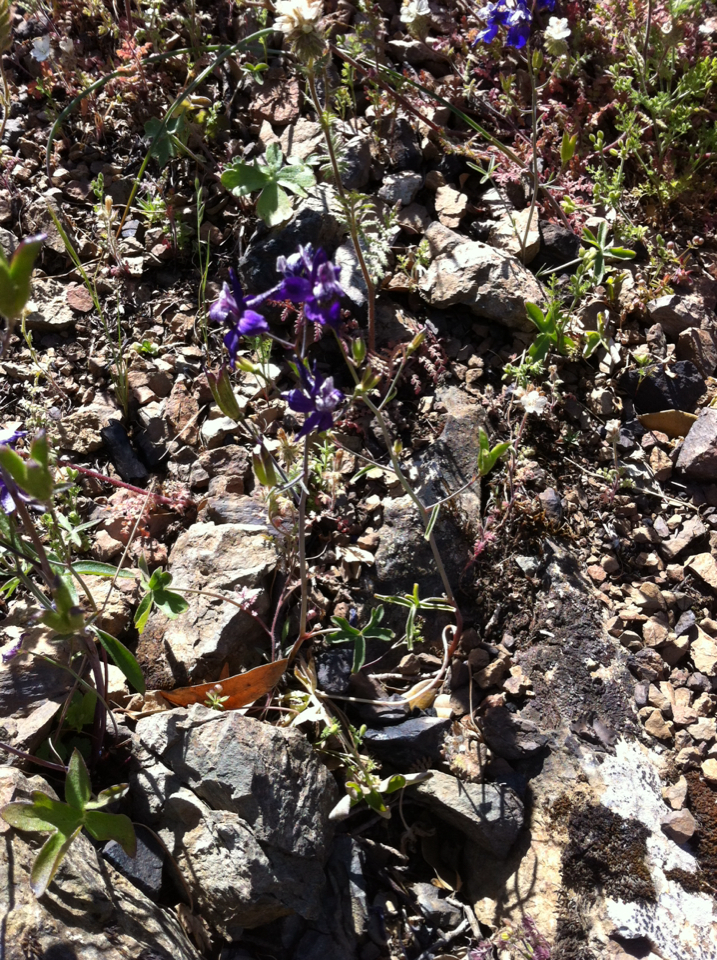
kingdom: Plantae
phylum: Tracheophyta
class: Magnoliopsida
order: Ranunculales
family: Ranunculaceae
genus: Delphinium
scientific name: Delphinium patens
